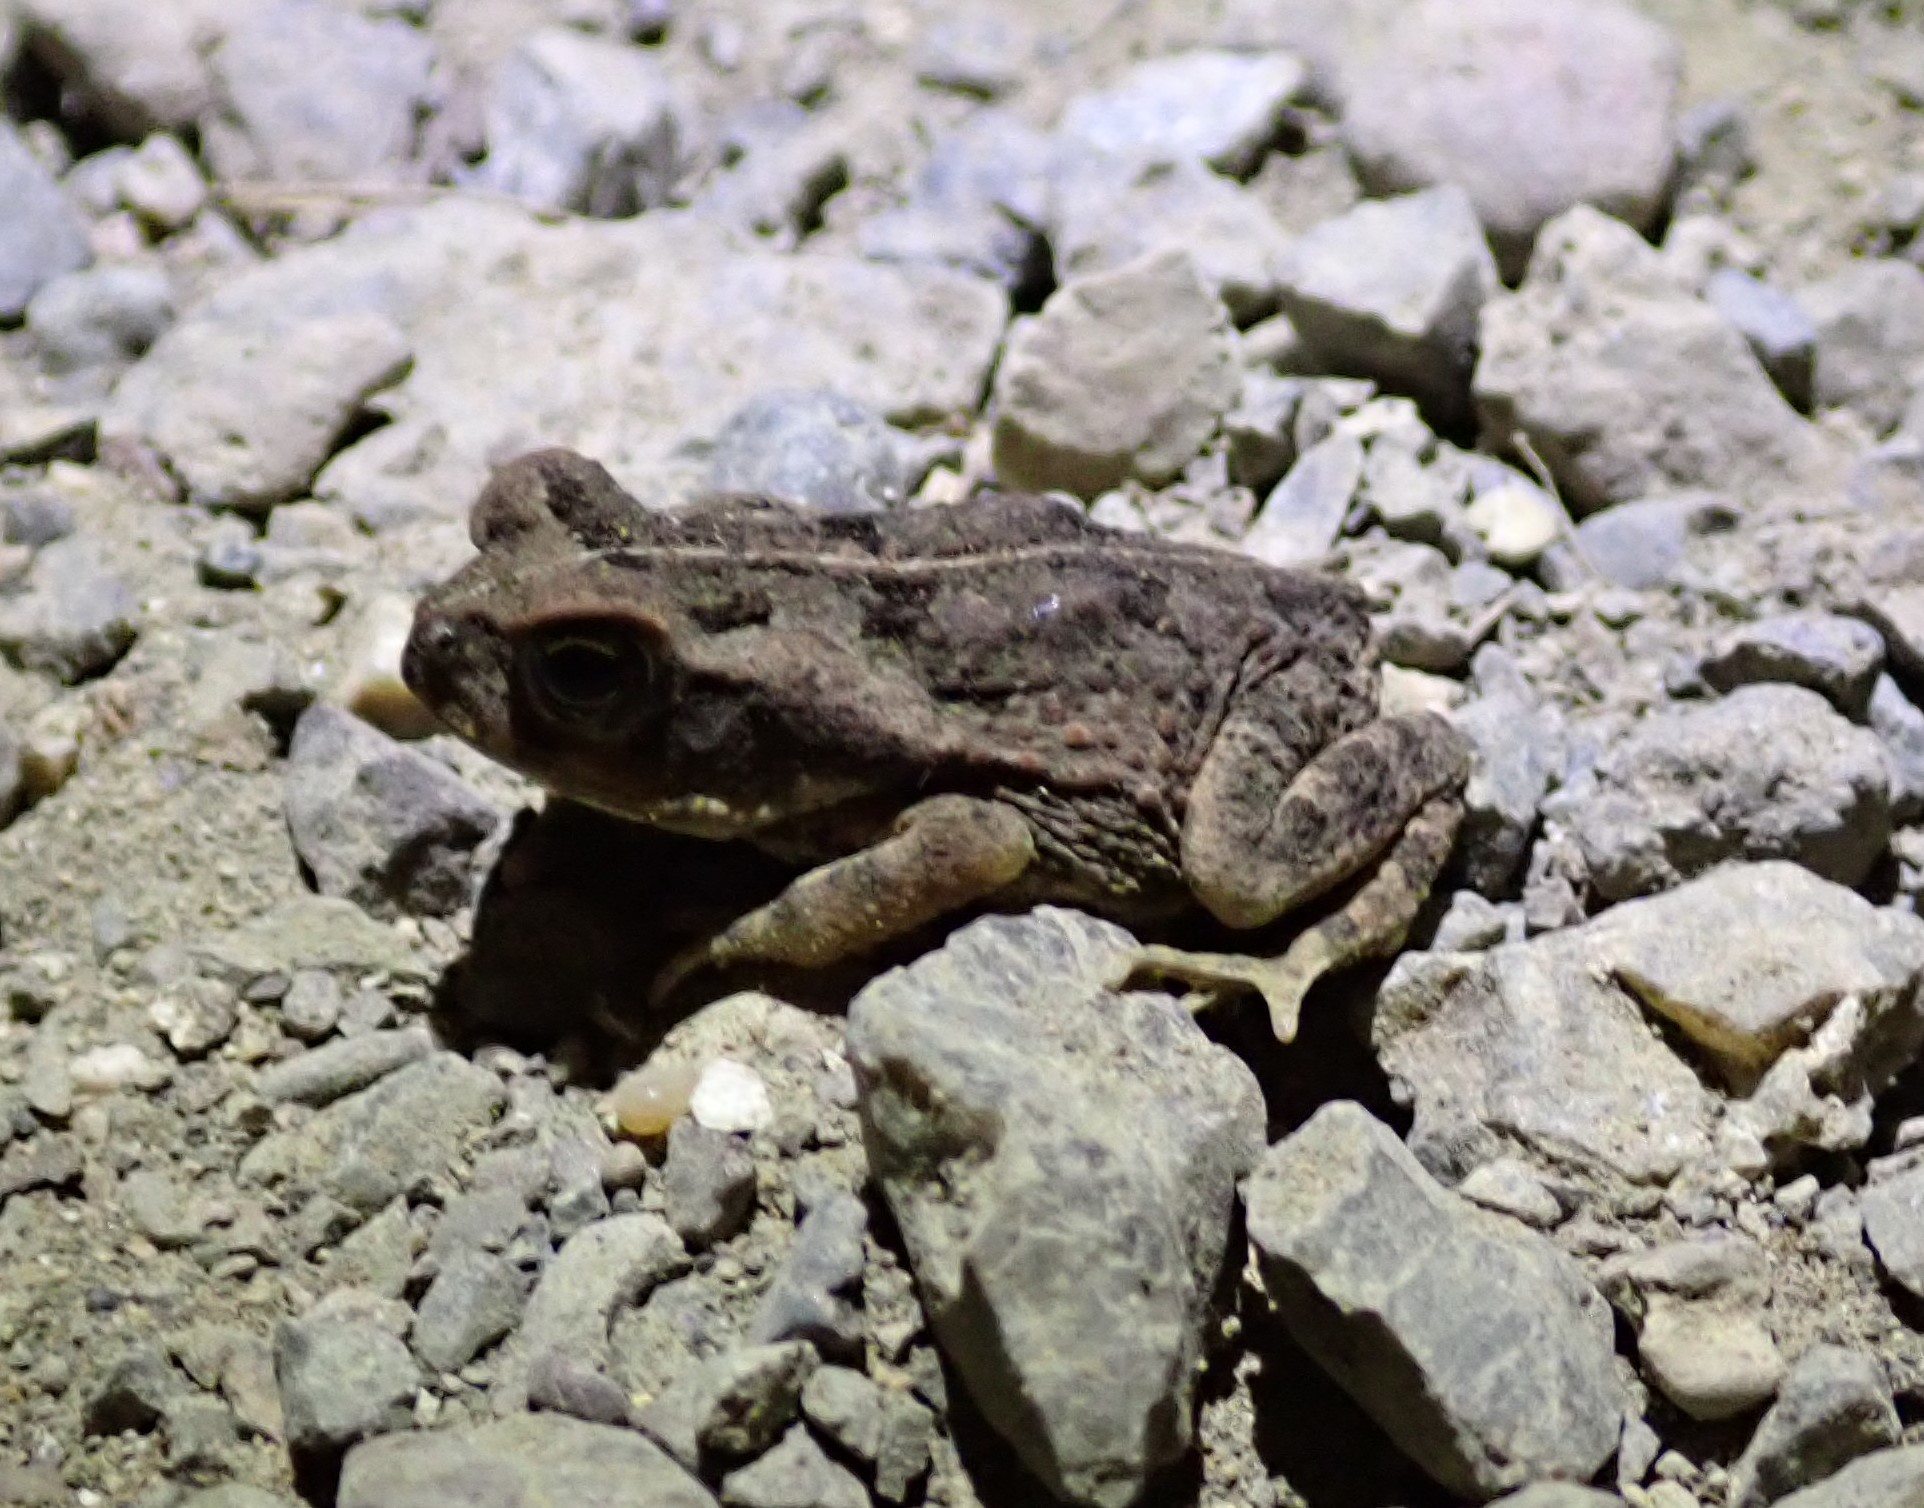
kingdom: Animalia
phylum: Chordata
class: Amphibia
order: Anura
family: Bufonidae
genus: Rhinella
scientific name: Rhinella horribilis
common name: Mesoamerican cane toad
